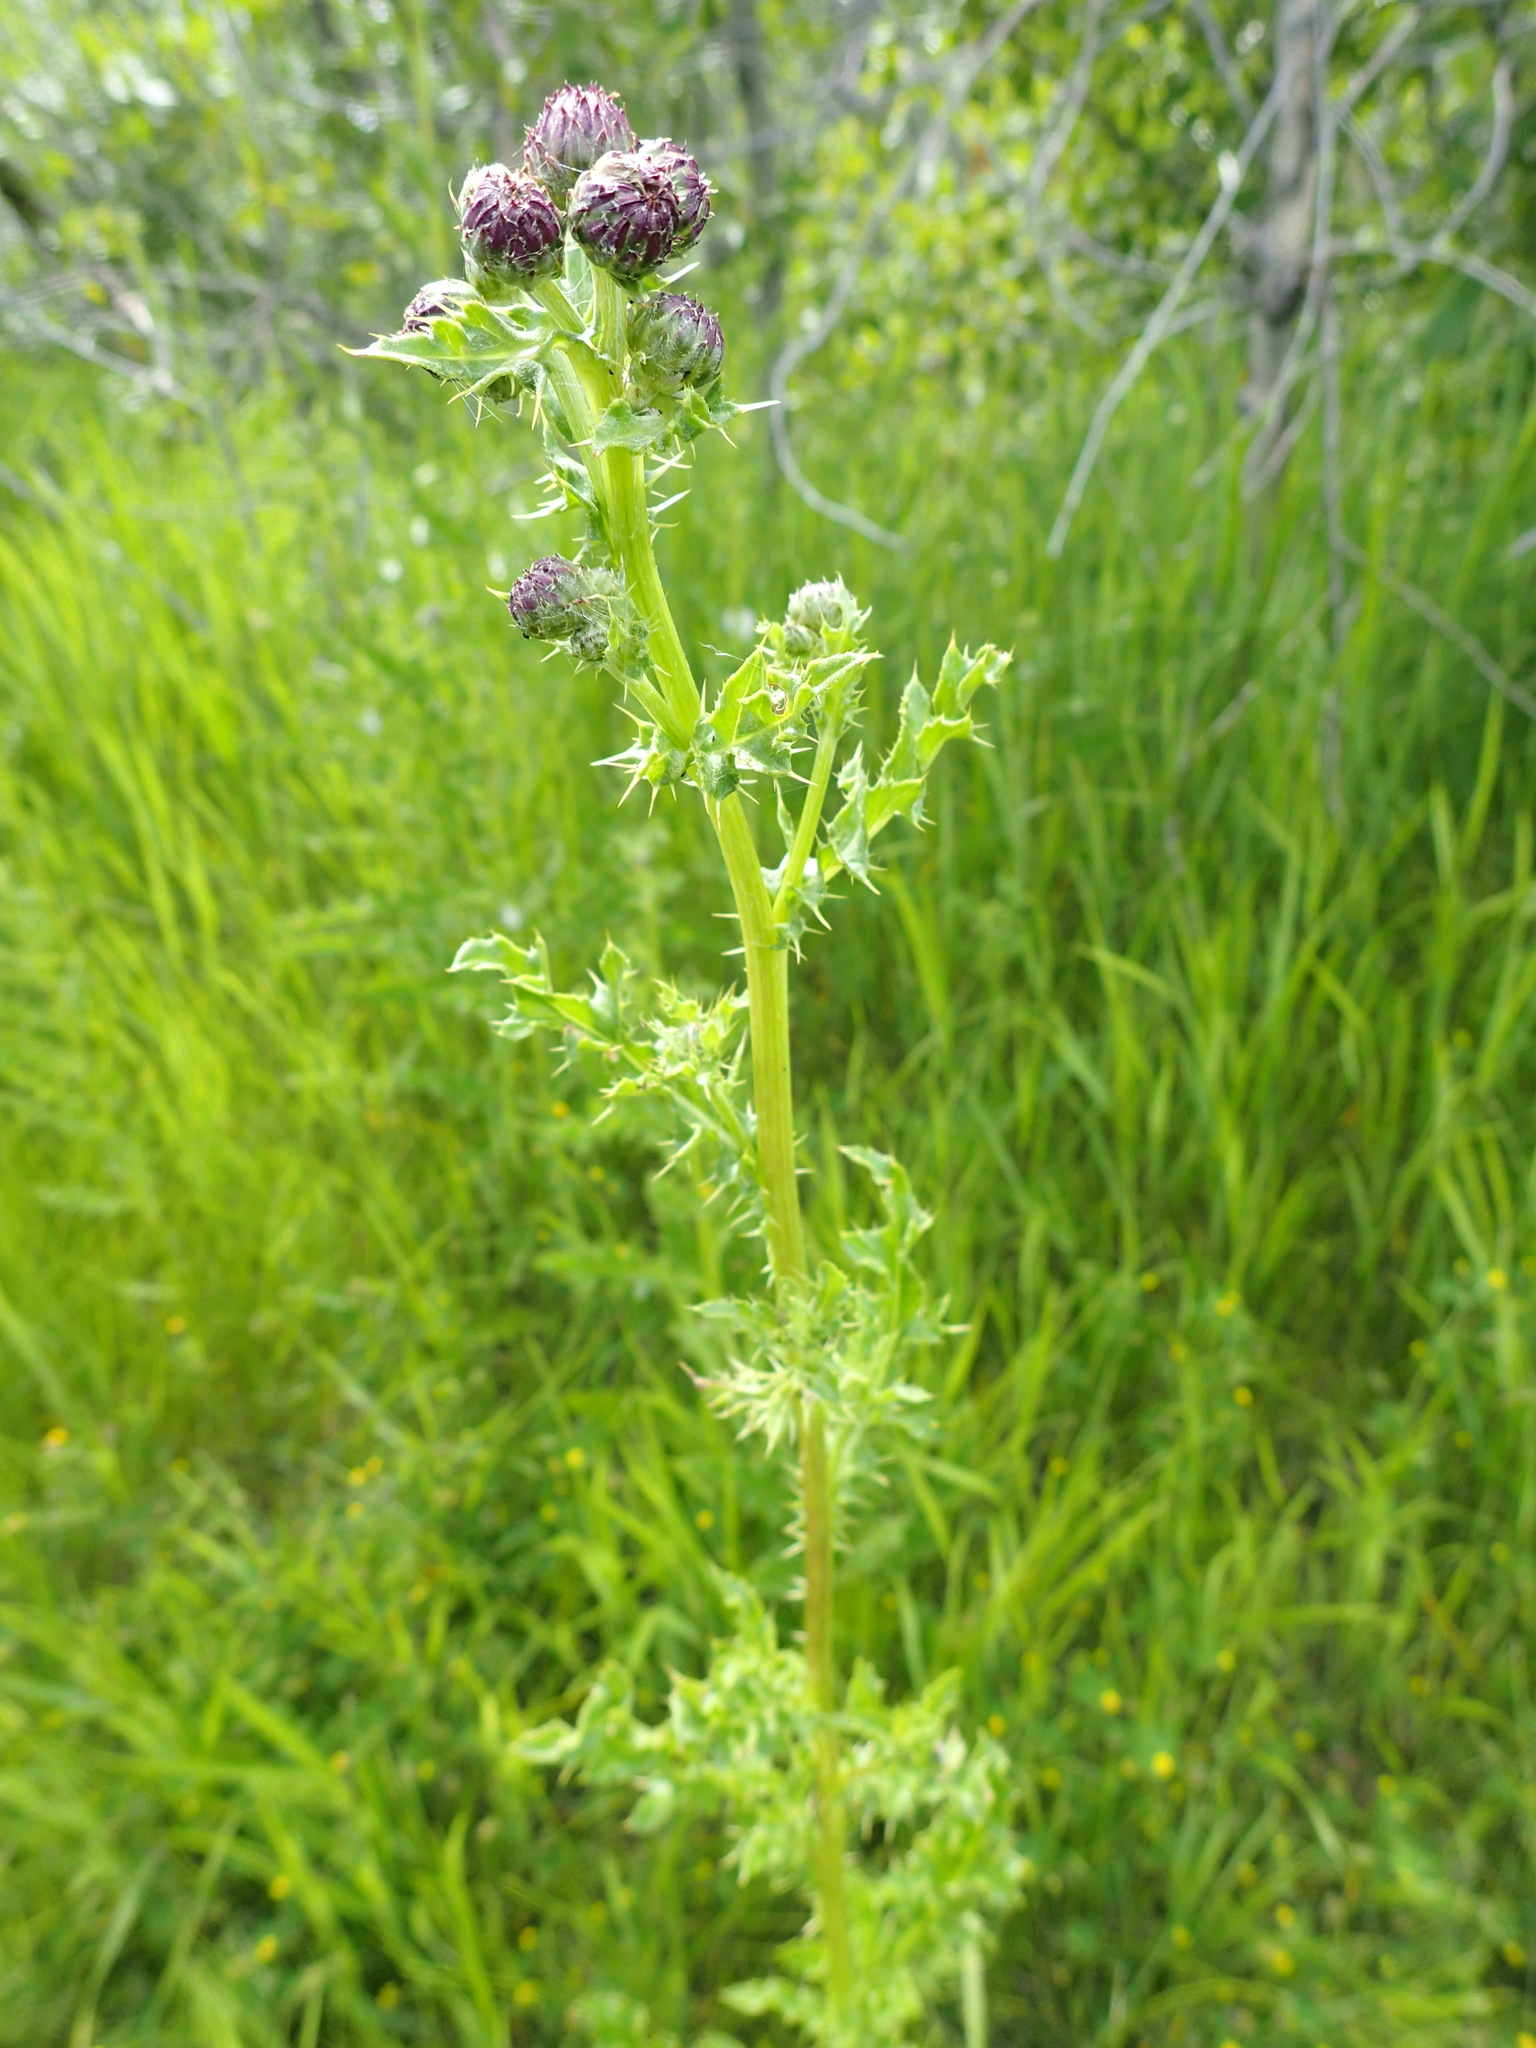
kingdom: Plantae
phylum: Tracheophyta
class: Magnoliopsida
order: Asterales
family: Asteraceae
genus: Cirsium
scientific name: Cirsium arvense
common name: Creeping thistle
